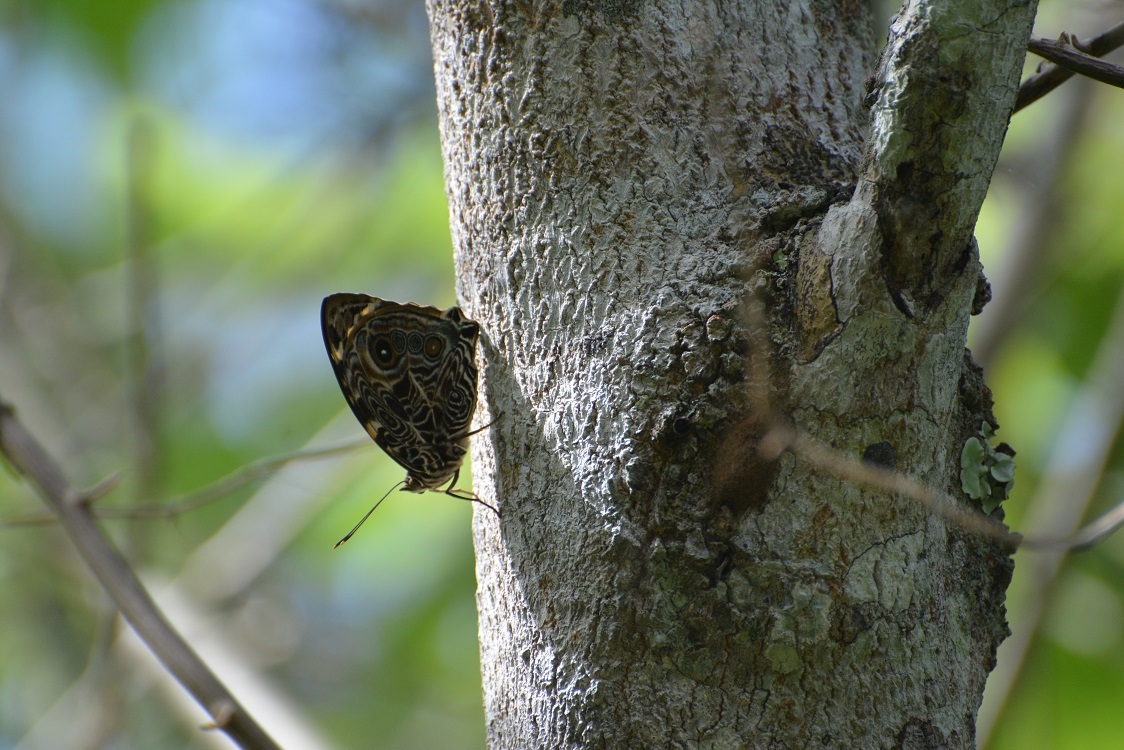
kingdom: Animalia
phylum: Arthropoda
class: Insecta
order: Lepidoptera
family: Nymphalidae
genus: Smyrna
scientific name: Smyrna blomfildia
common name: Blomfild's beauty
